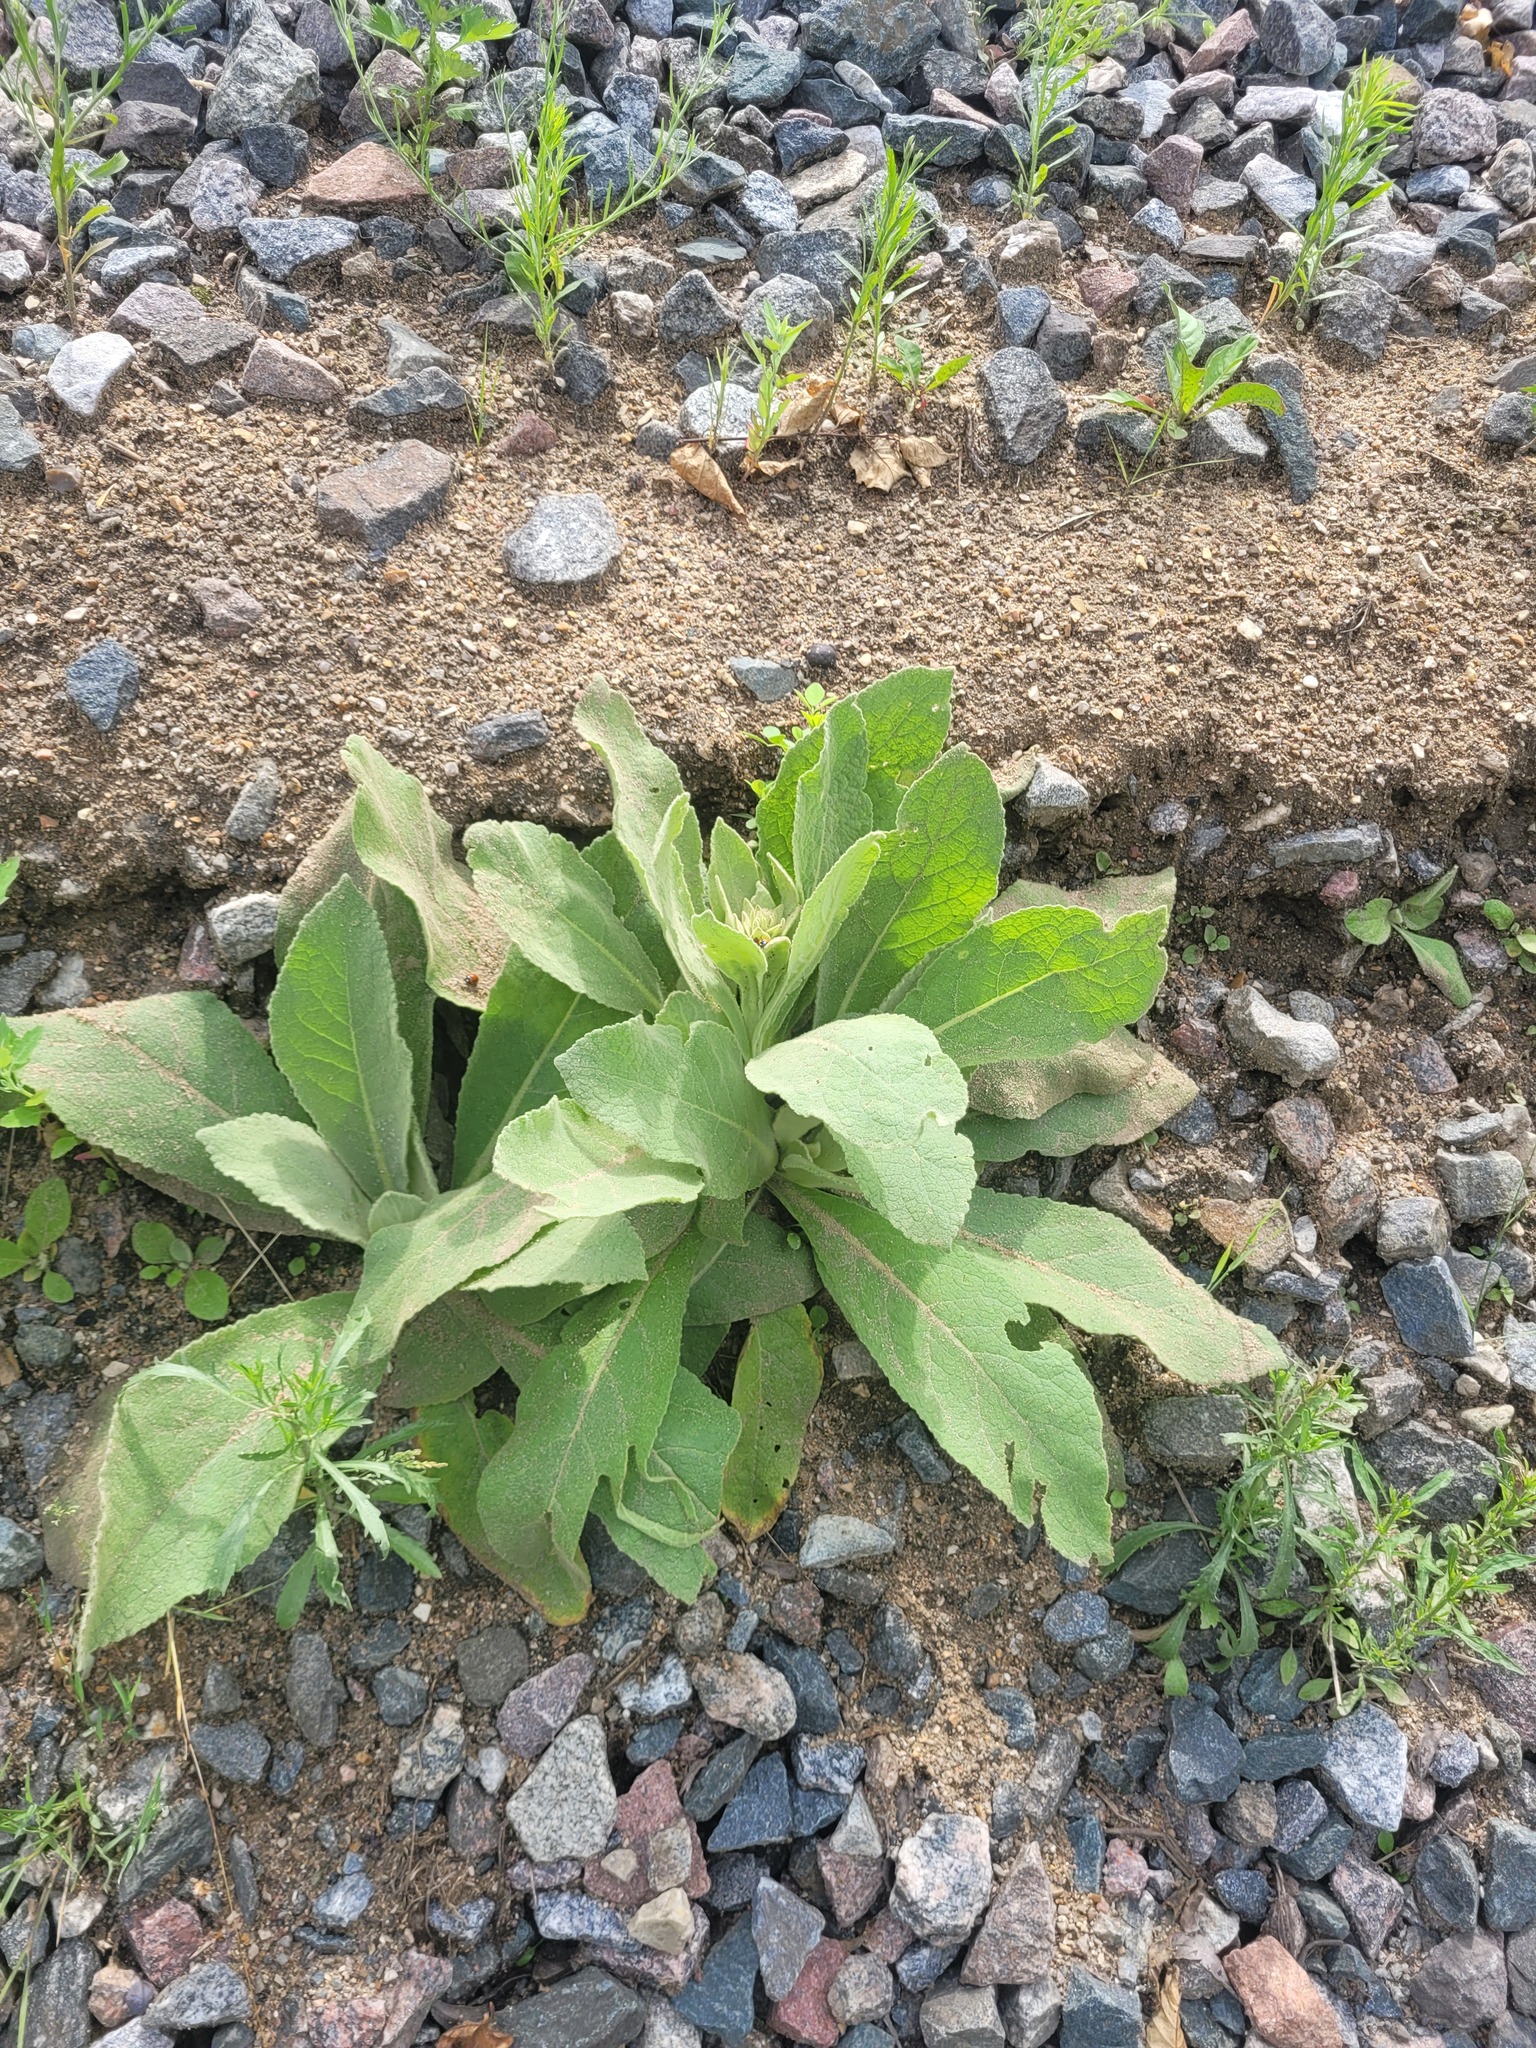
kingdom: Plantae
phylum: Tracheophyta
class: Magnoliopsida
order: Lamiales
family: Scrophulariaceae
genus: Verbascum
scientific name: Verbascum thapsus
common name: Common mullein
